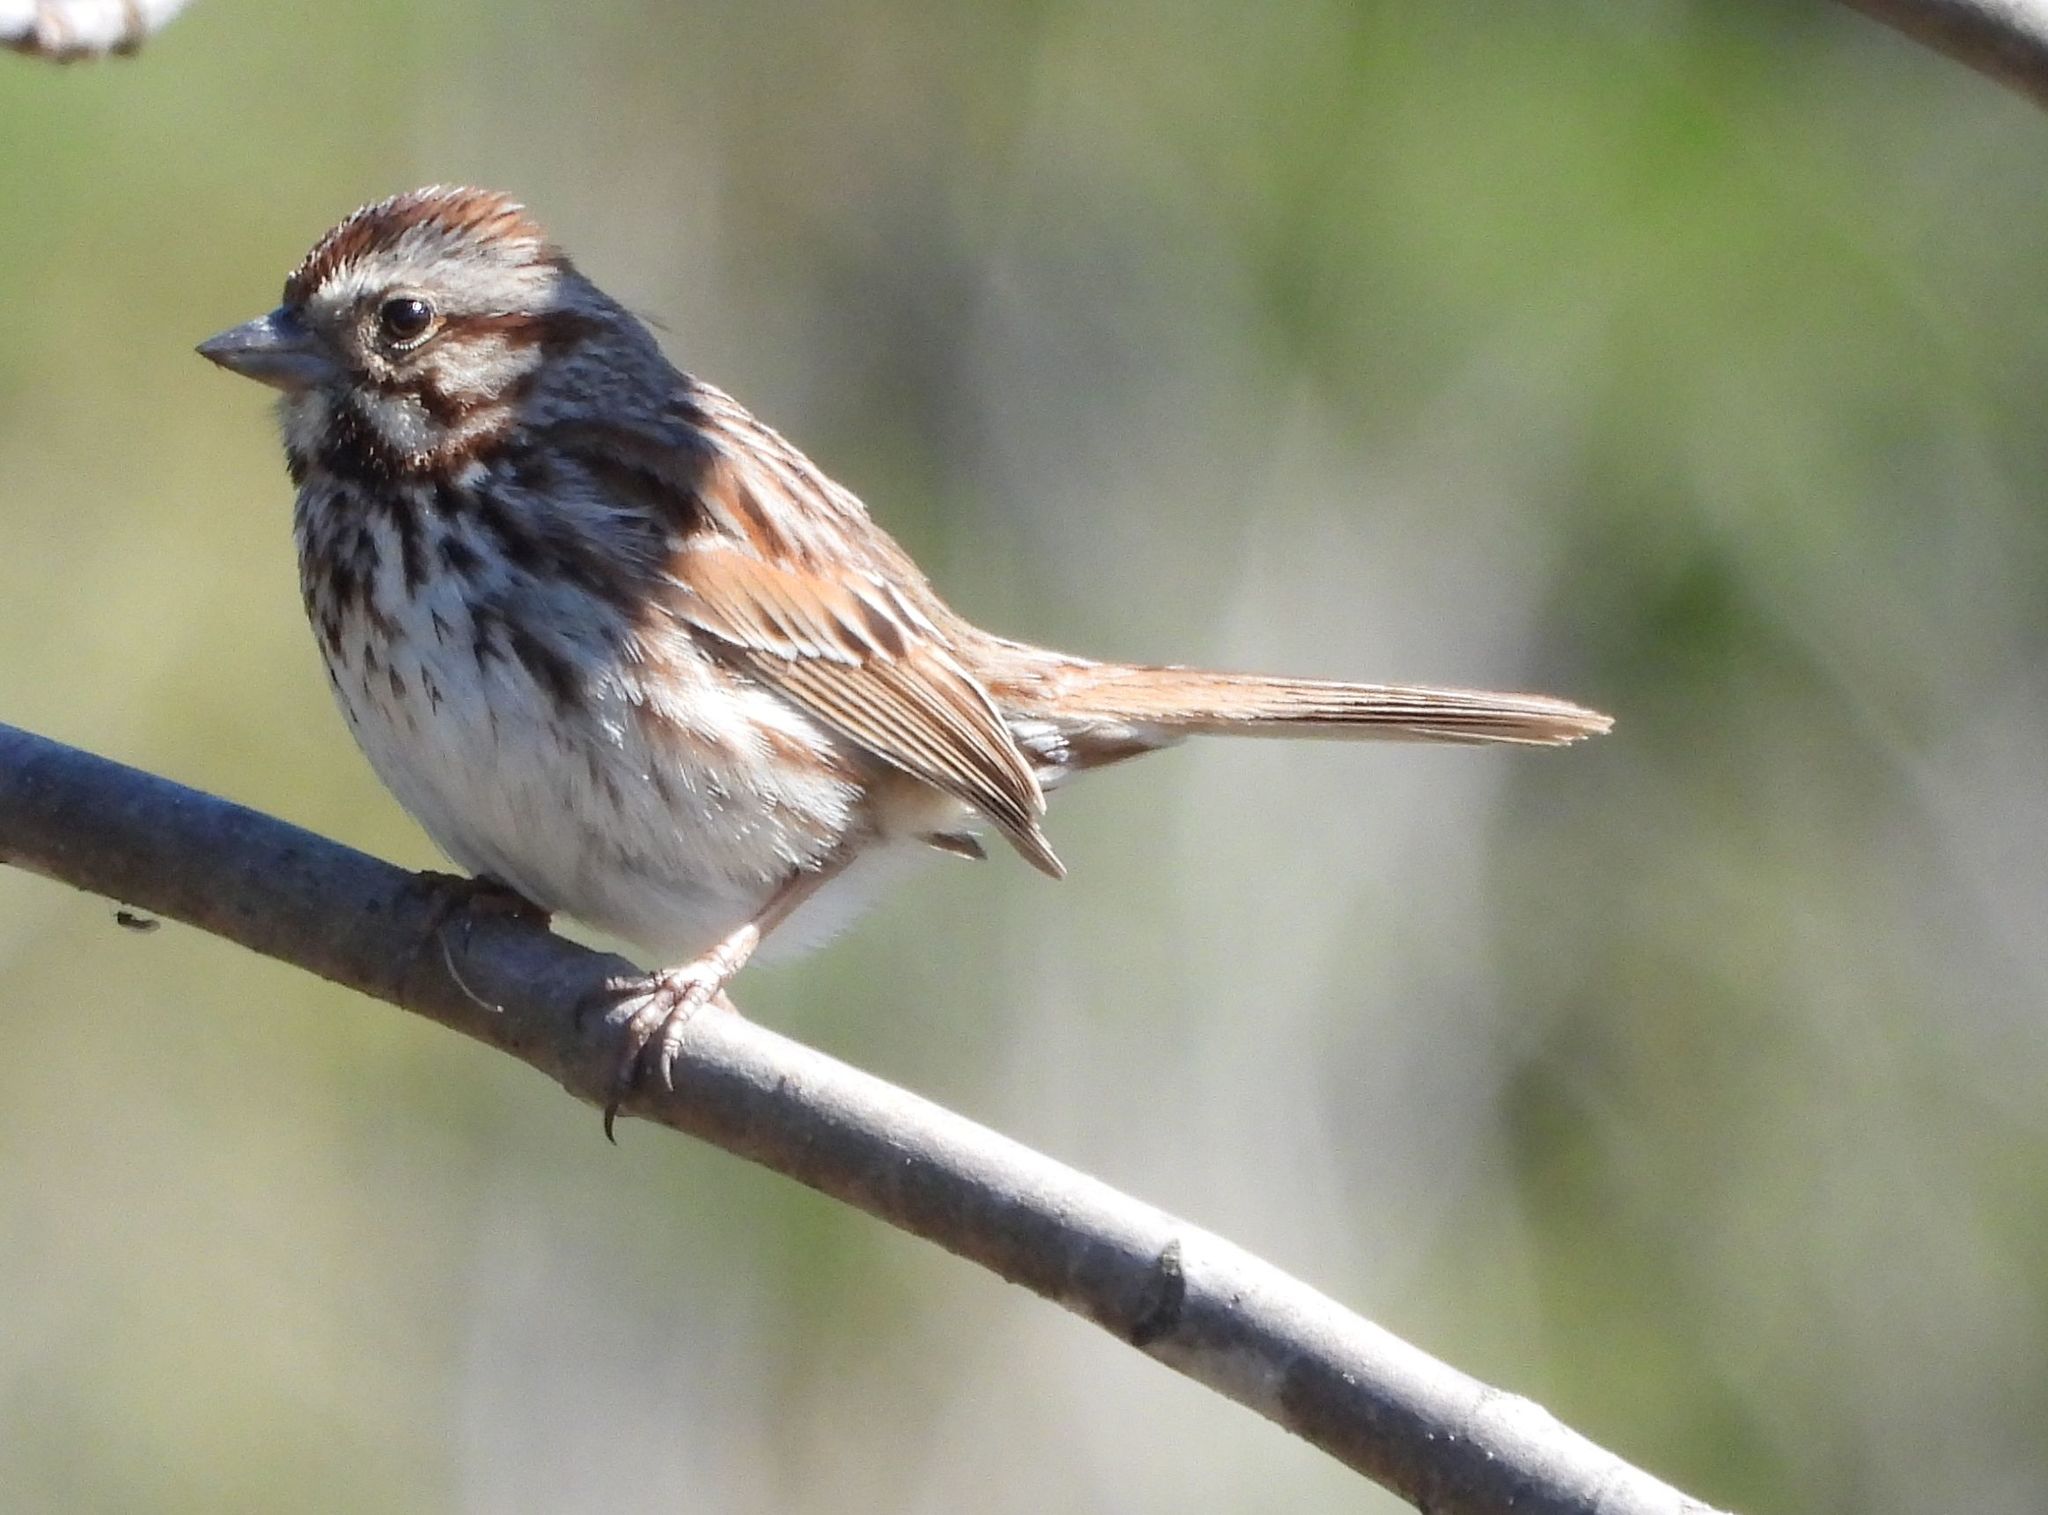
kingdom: Animalia
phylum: Chordata
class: Aves
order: Passeriformes
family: Passerellidae
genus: Melospiza
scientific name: Melospiza melodia
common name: Song sparrow
